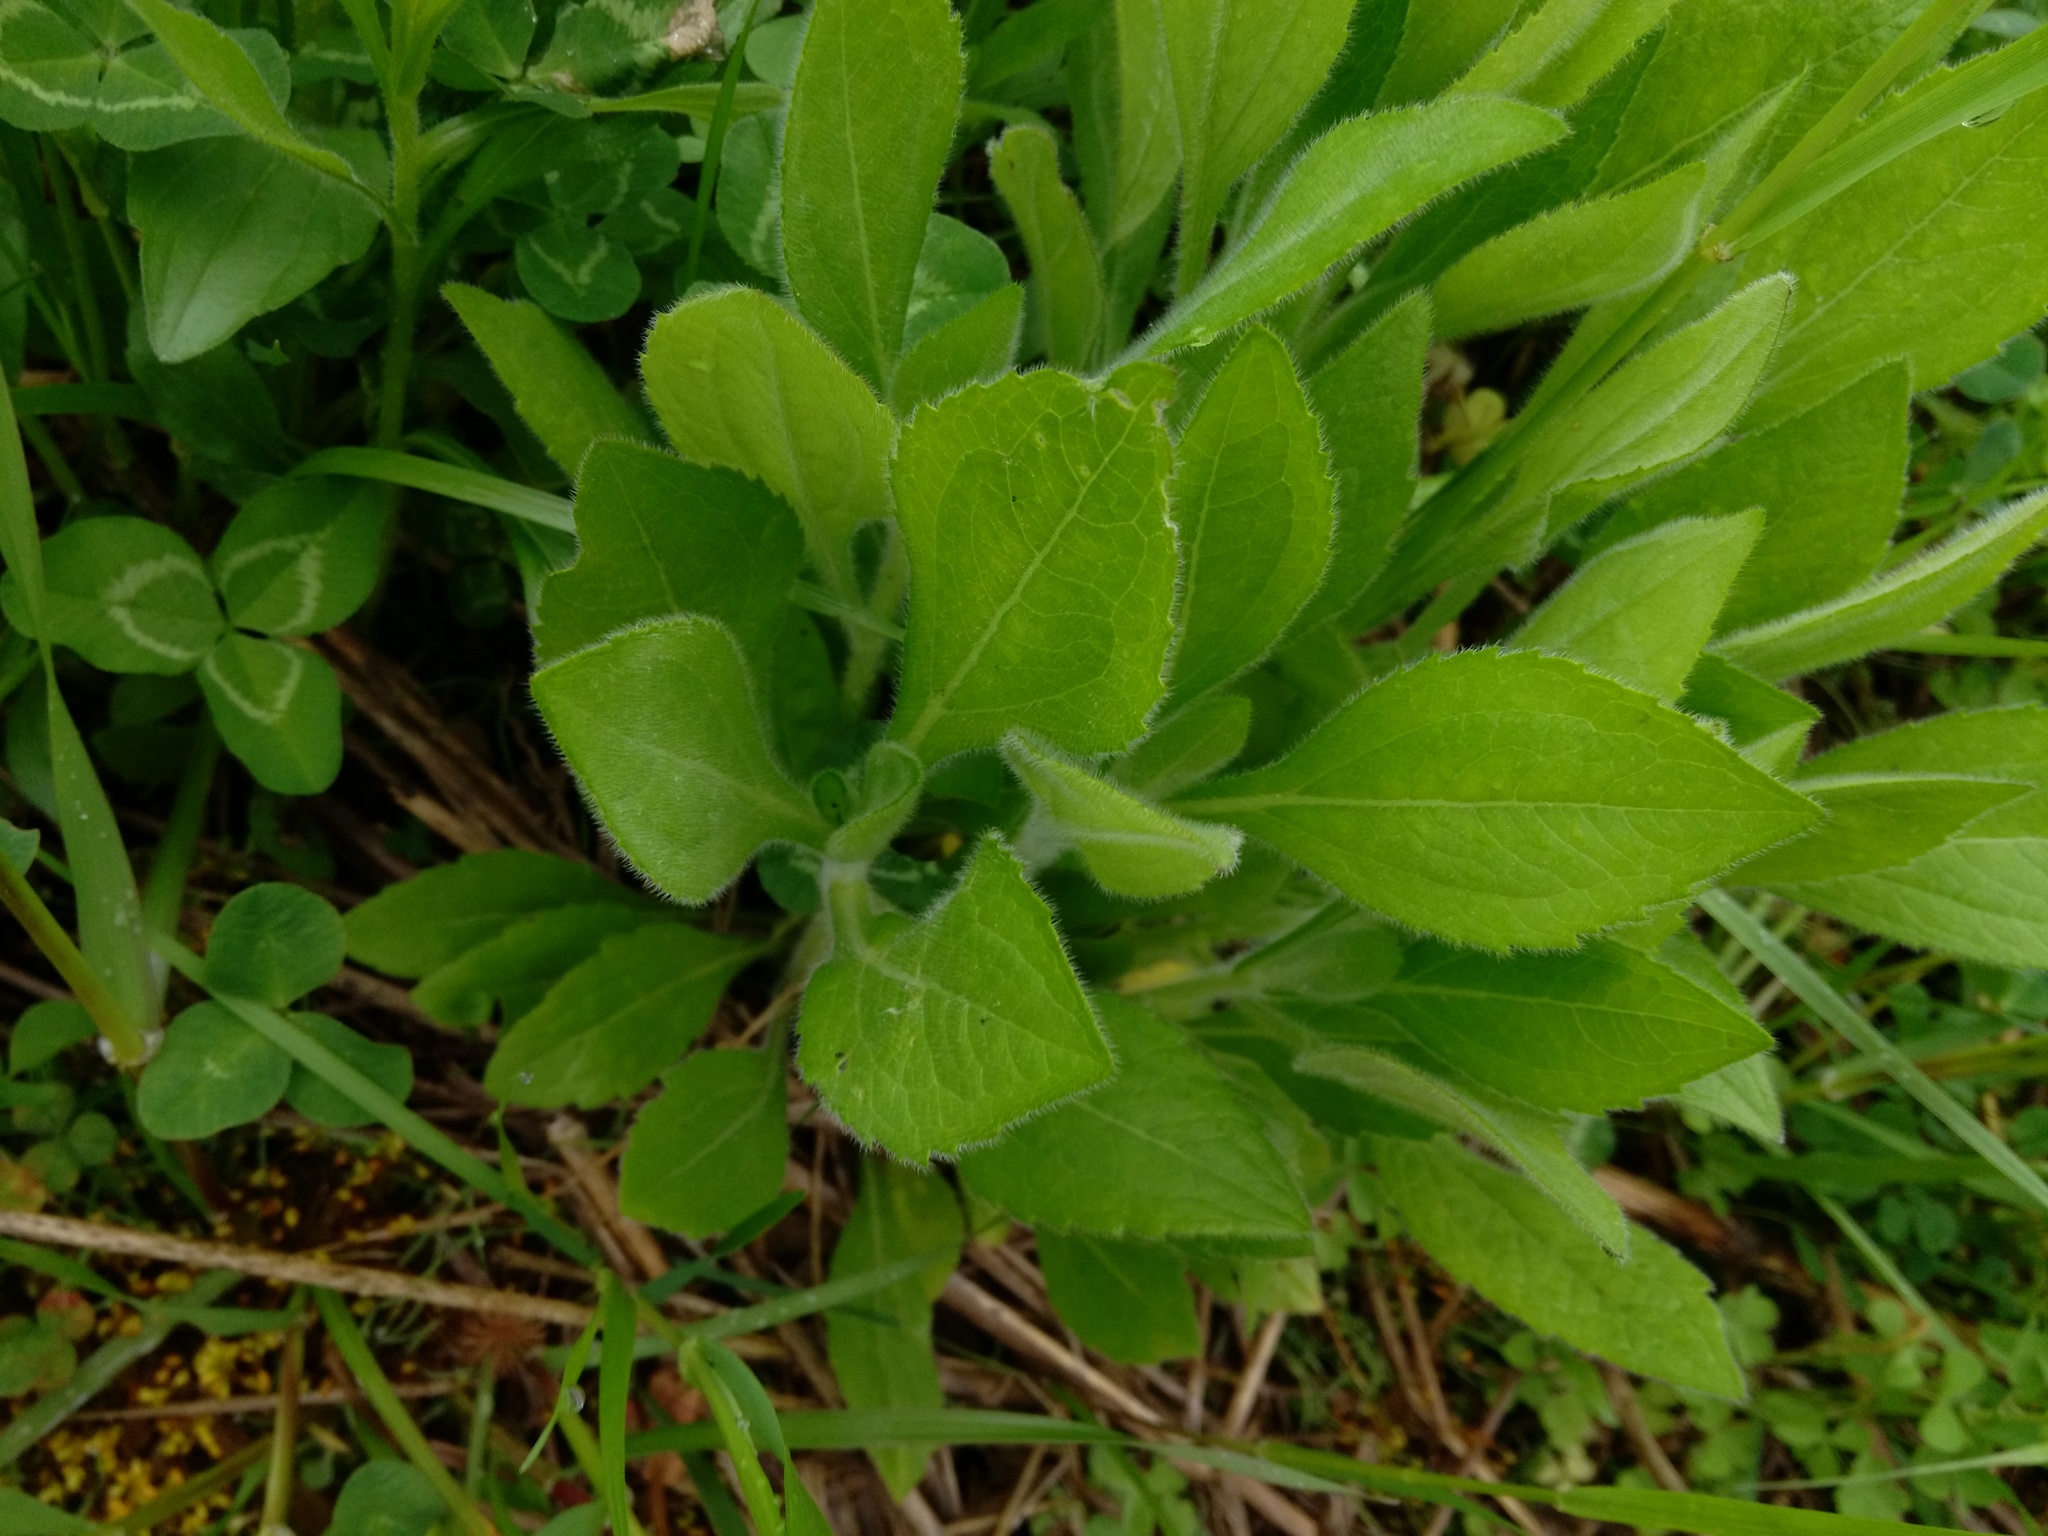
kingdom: Plantae
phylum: Tracheophyta
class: Magnoliopsida
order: Asterales
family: Asteraceae
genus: Rudbeckia
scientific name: Rudbeckia hirta
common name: Black-eyed-susan
